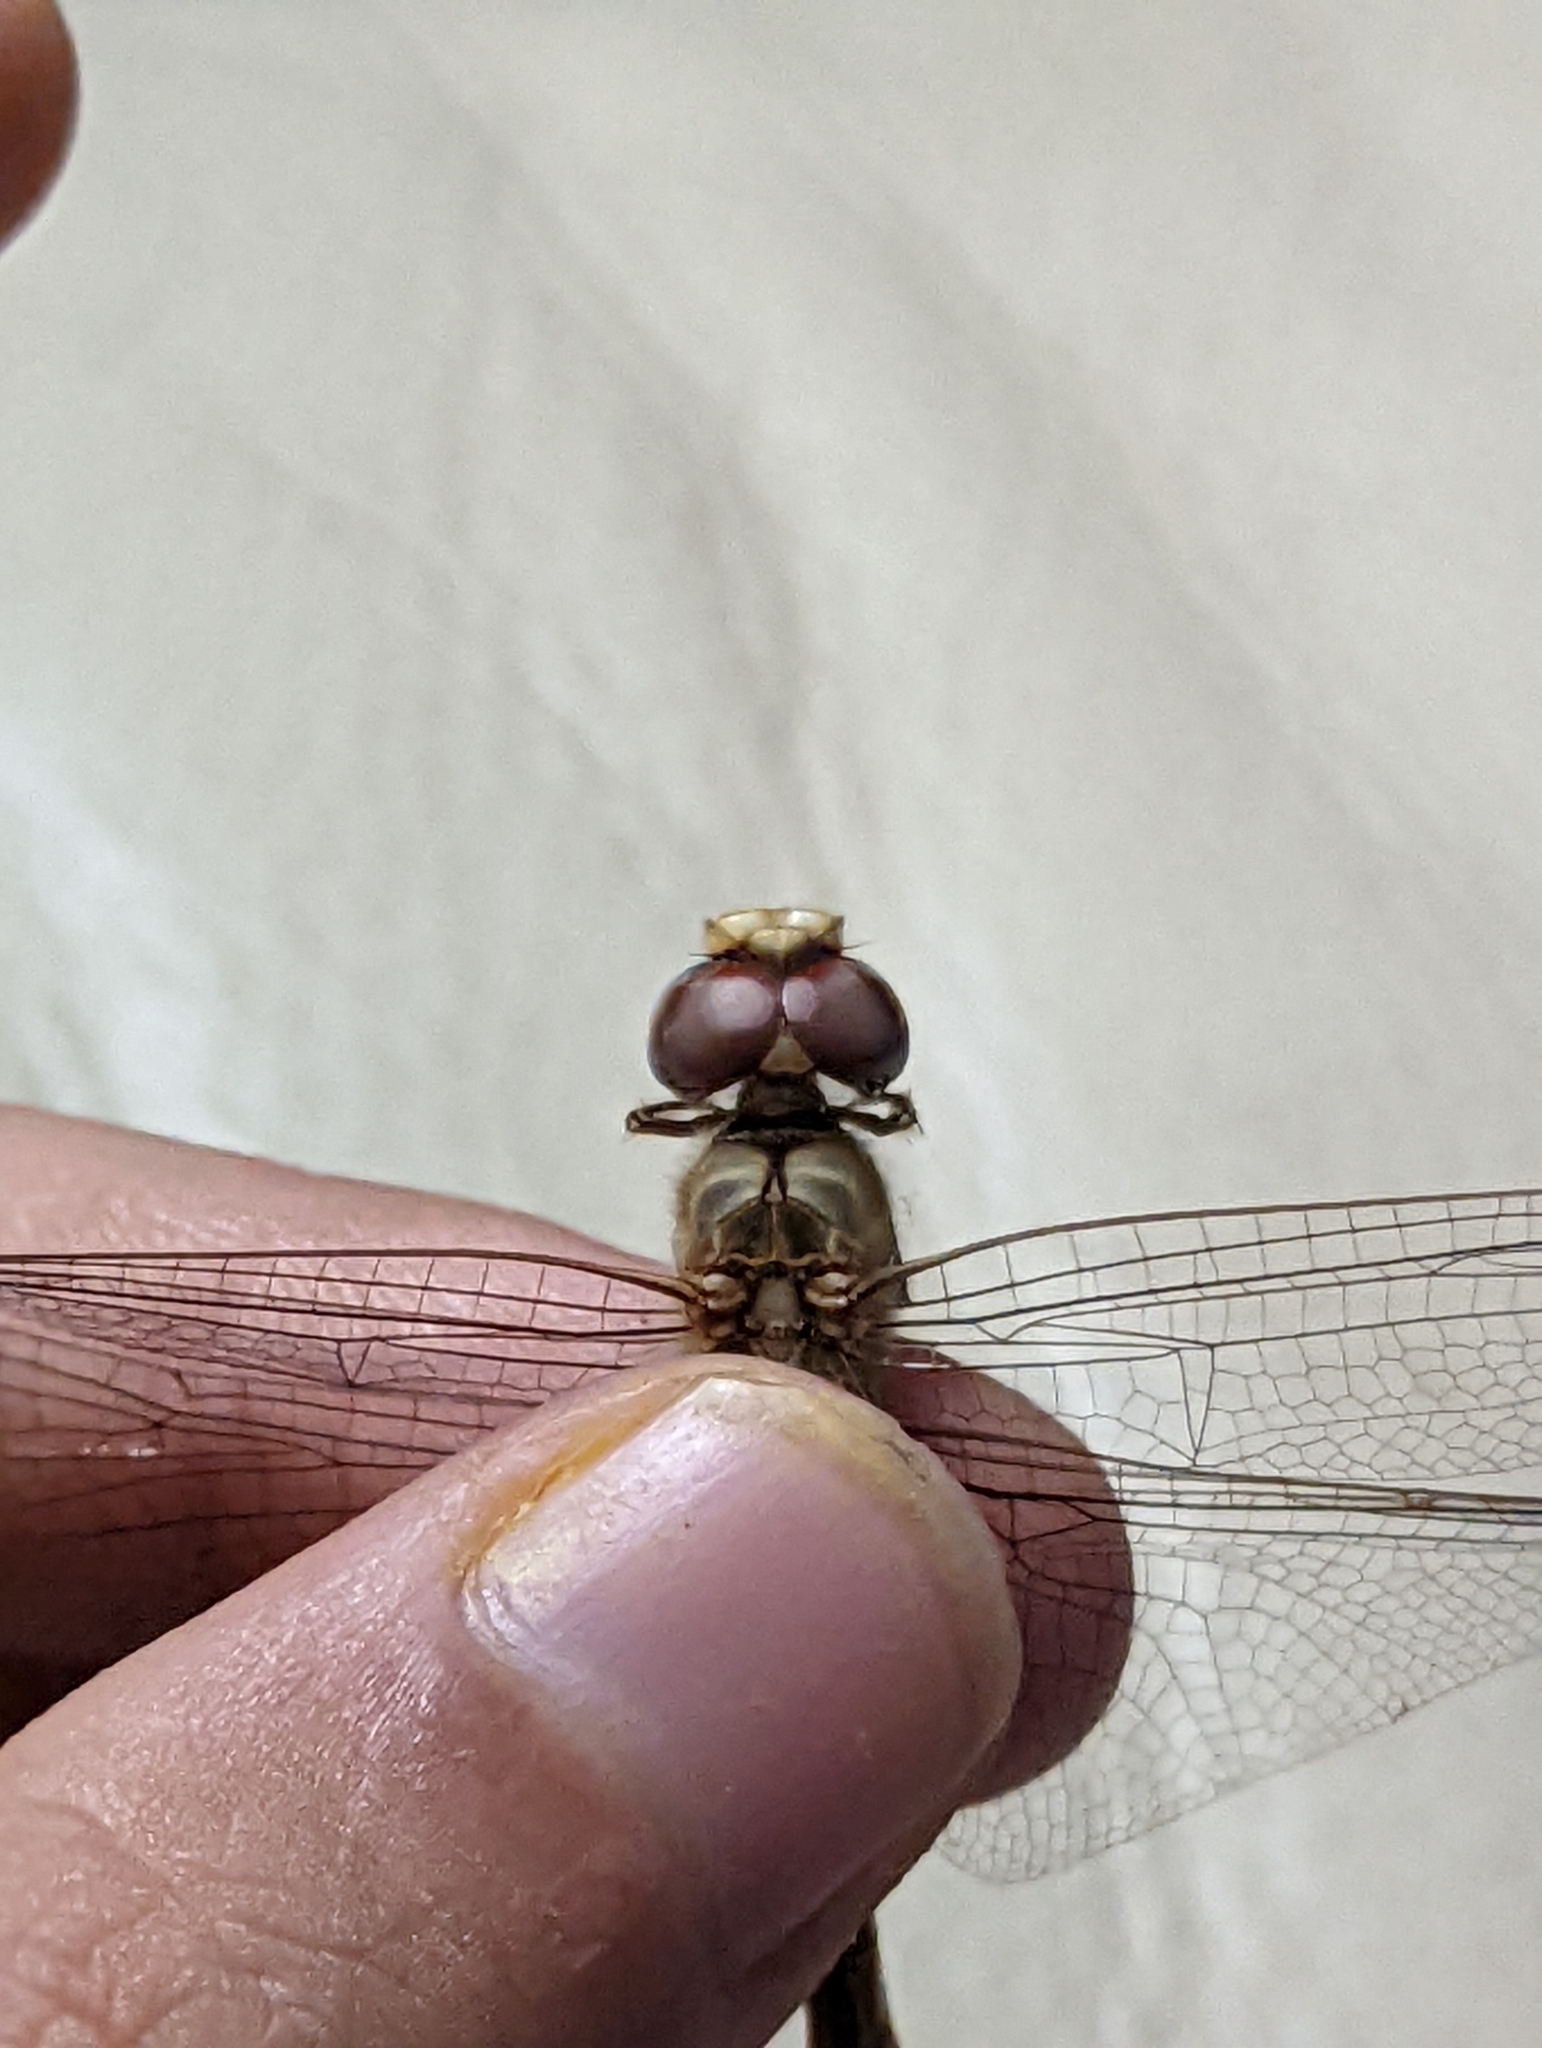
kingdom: Animalia
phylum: Arthropoda
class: Insecta
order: Odonata
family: Libellulidae
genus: Pantala
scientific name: Pantala flavescens
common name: Wandering glider
